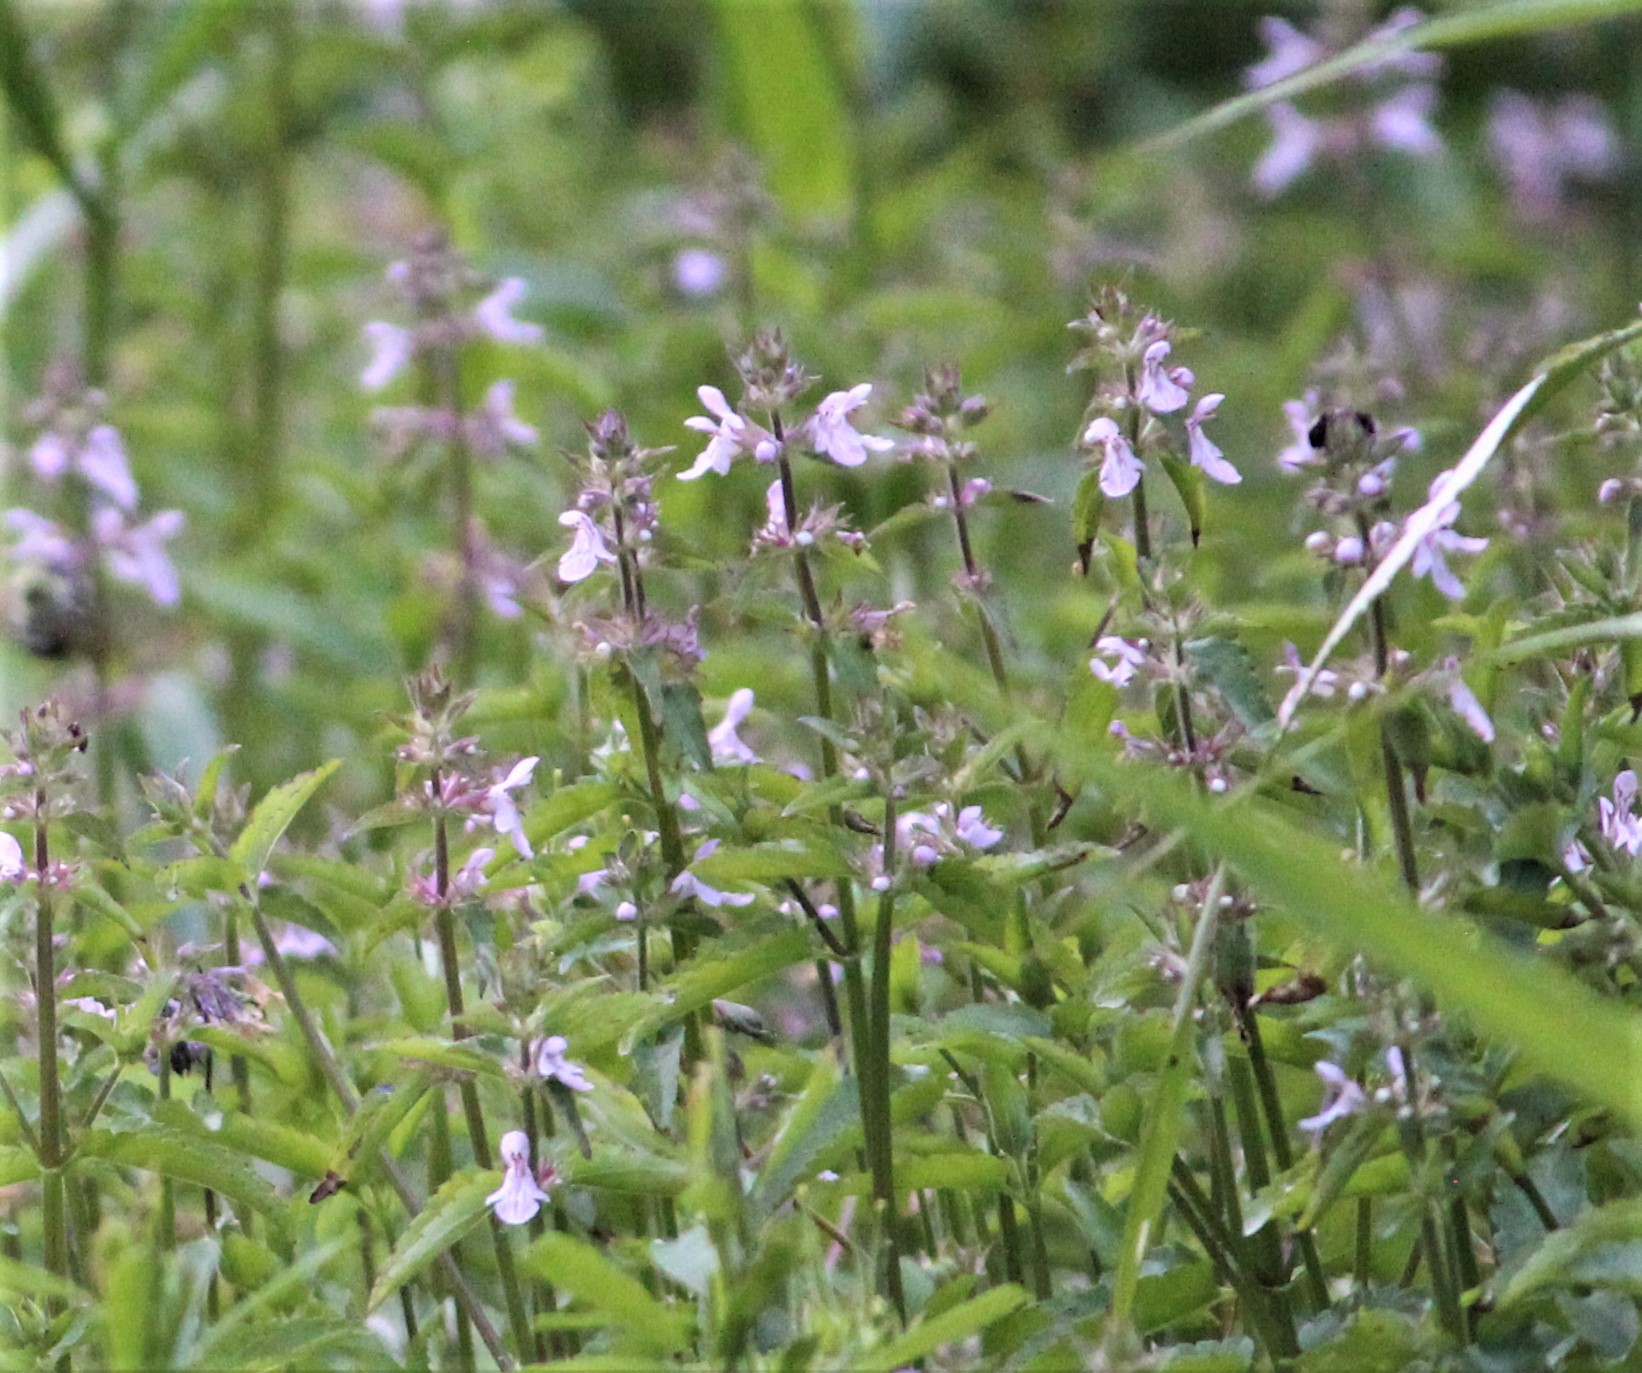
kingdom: Plantae
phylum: Tracheophyta
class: Magnoliopsida
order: Lamiales
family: Lamiaceae
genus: Stachys
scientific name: Stachys floridana
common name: Florida betony
